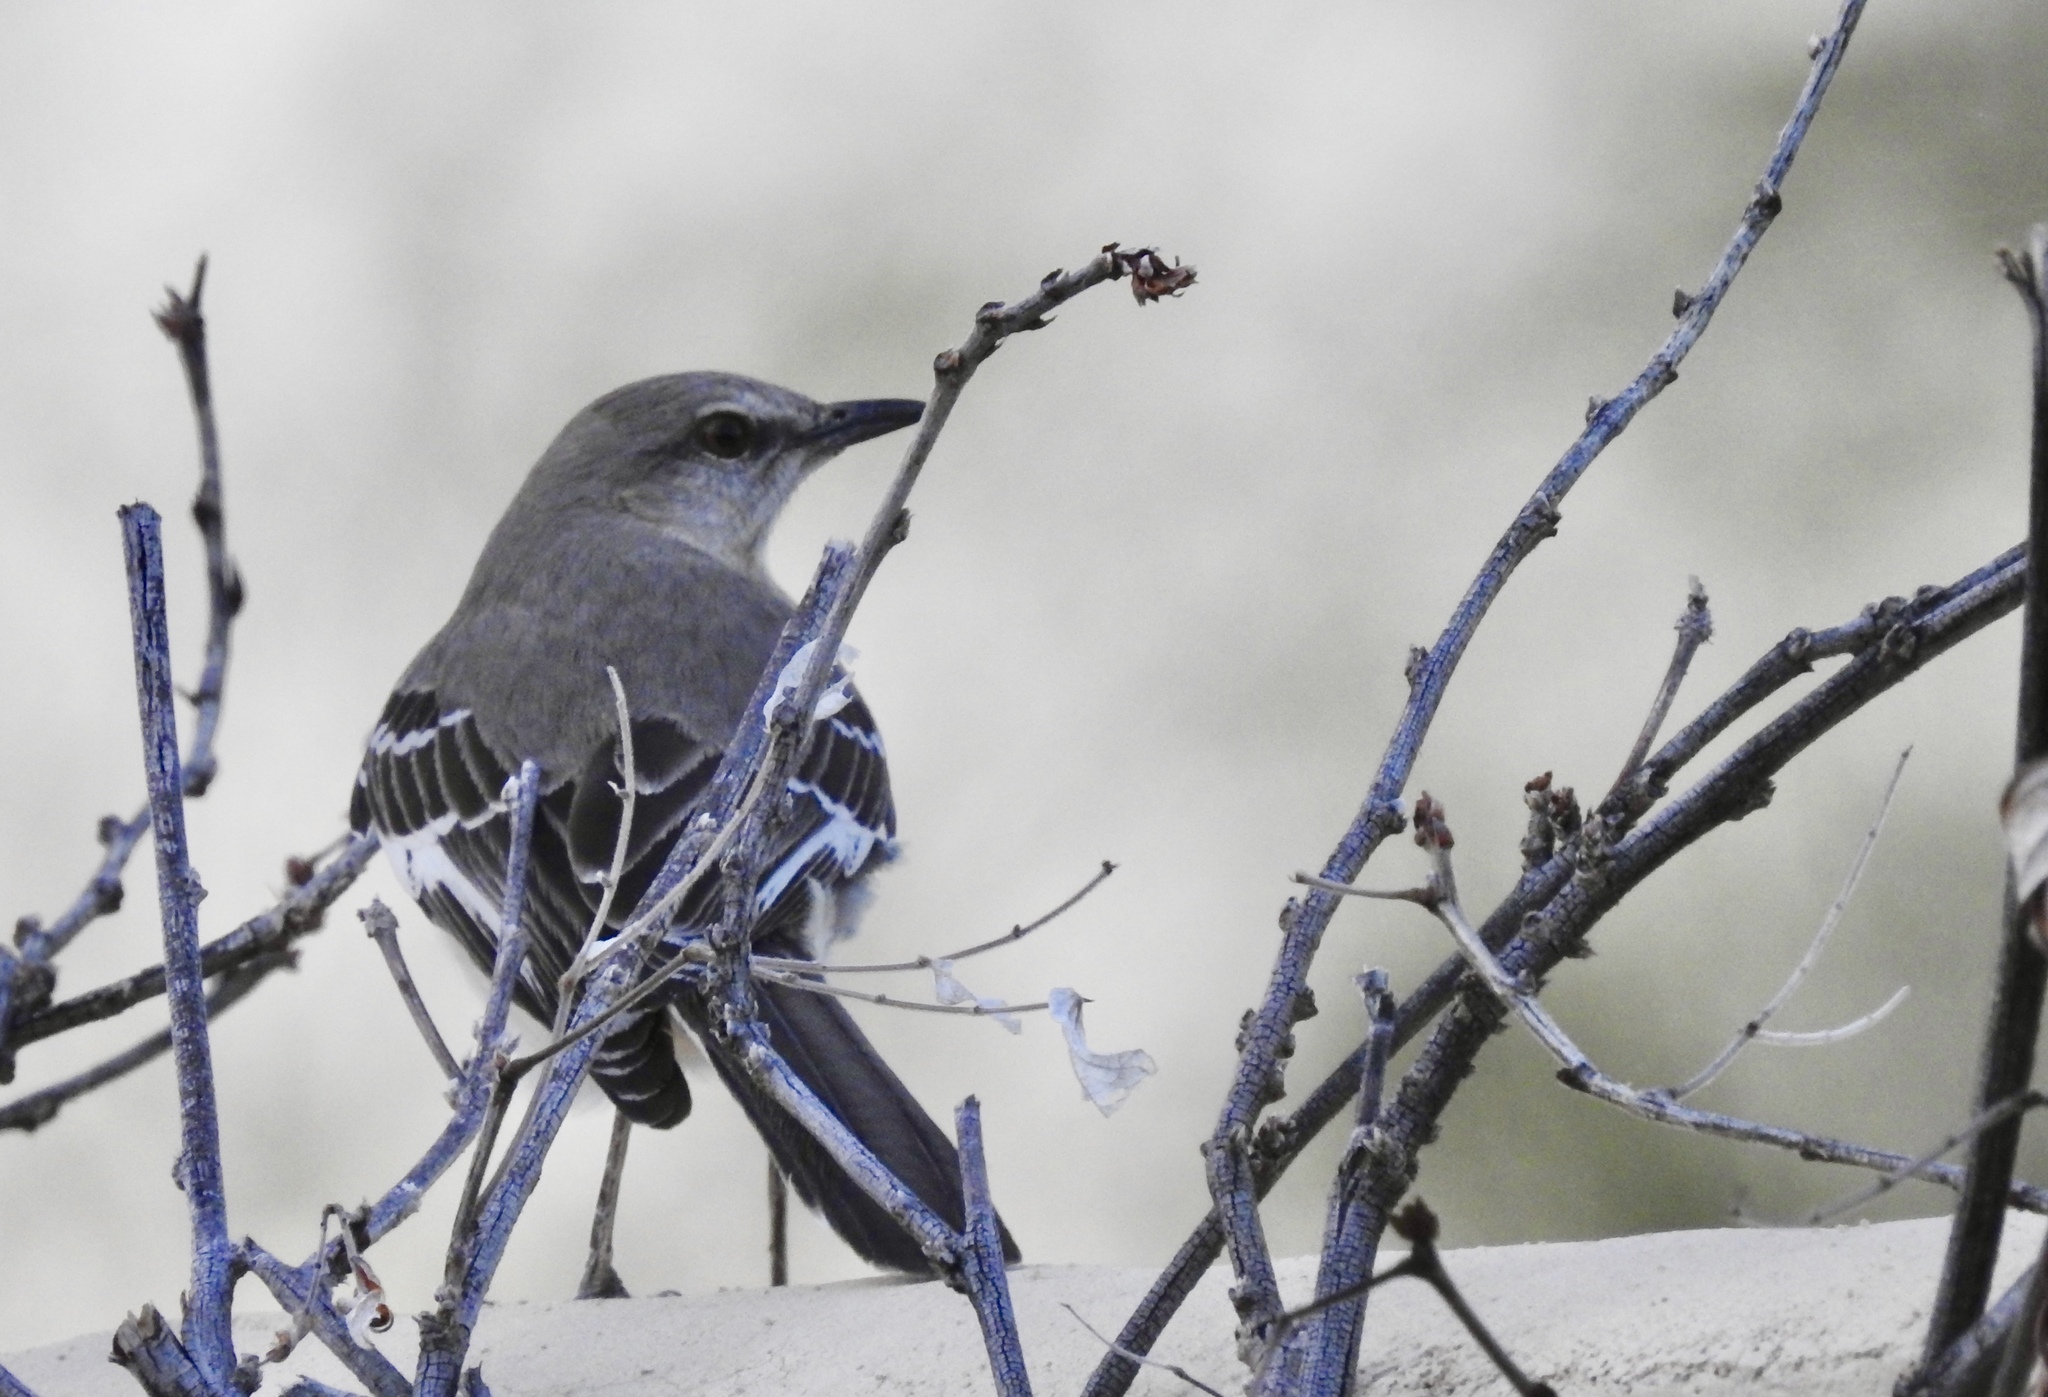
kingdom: Animalia
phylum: Chordata
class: Aves
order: Passeriformes
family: Mimidae
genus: Mimus
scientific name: Mimus polyglottos
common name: Northern mockingbird
